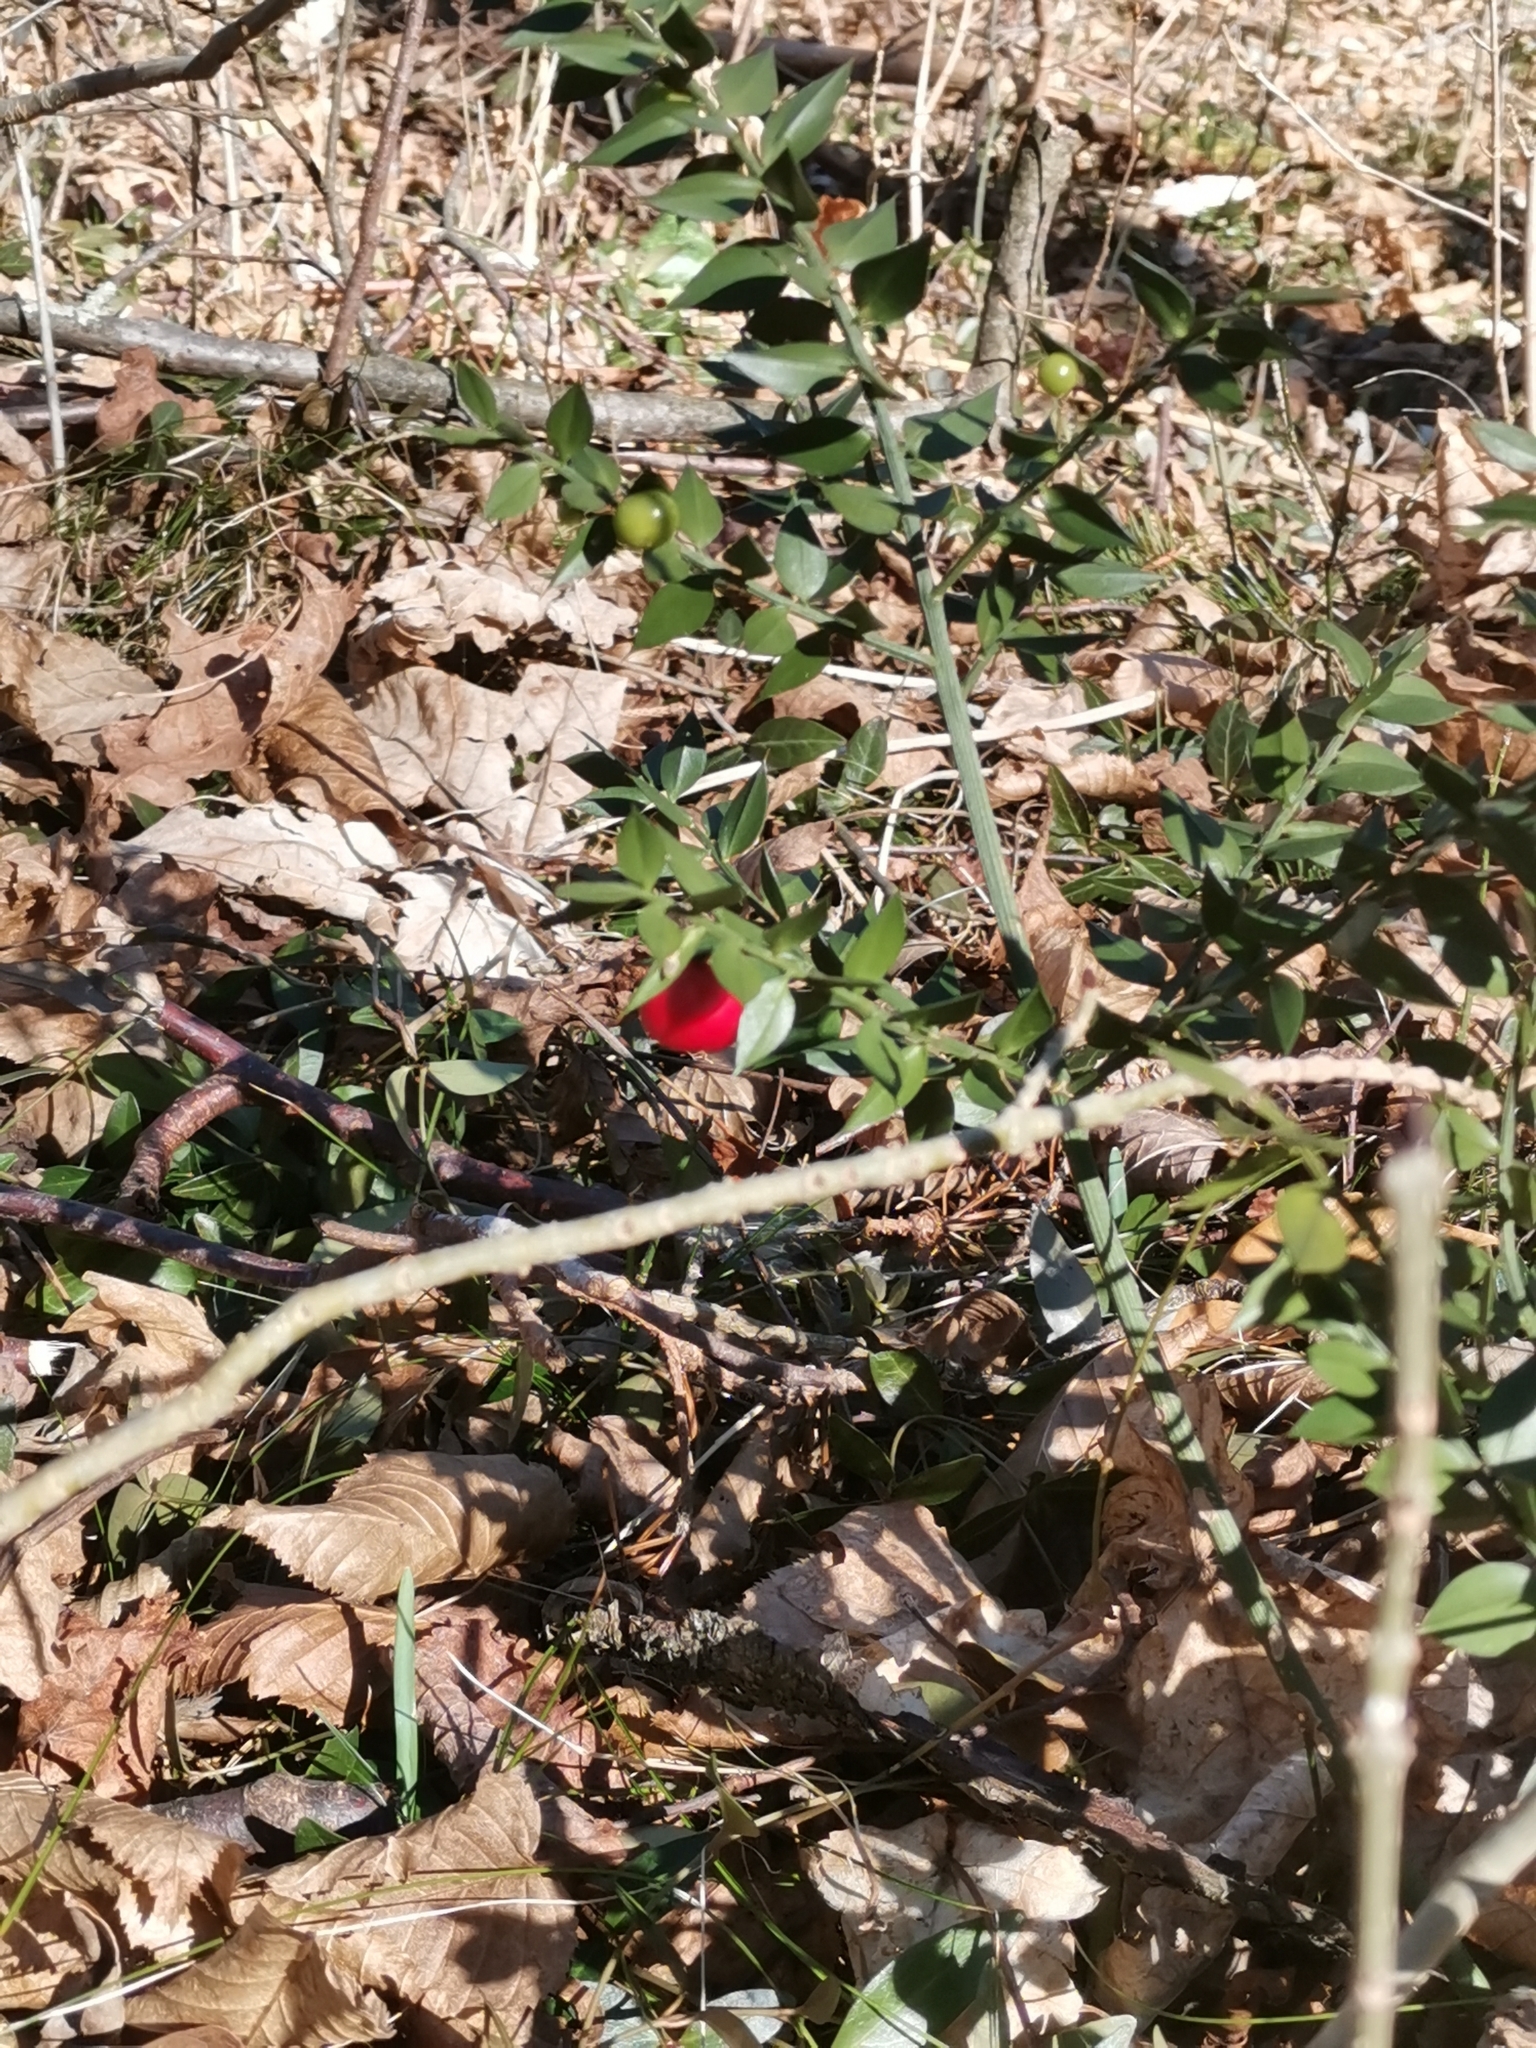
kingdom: Plantae
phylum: Tracheophyta
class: Liliopsida
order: Asparagales
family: Asparagaceae
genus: Ruscus
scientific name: Ruscus aculeatus
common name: Butcher's-broom
